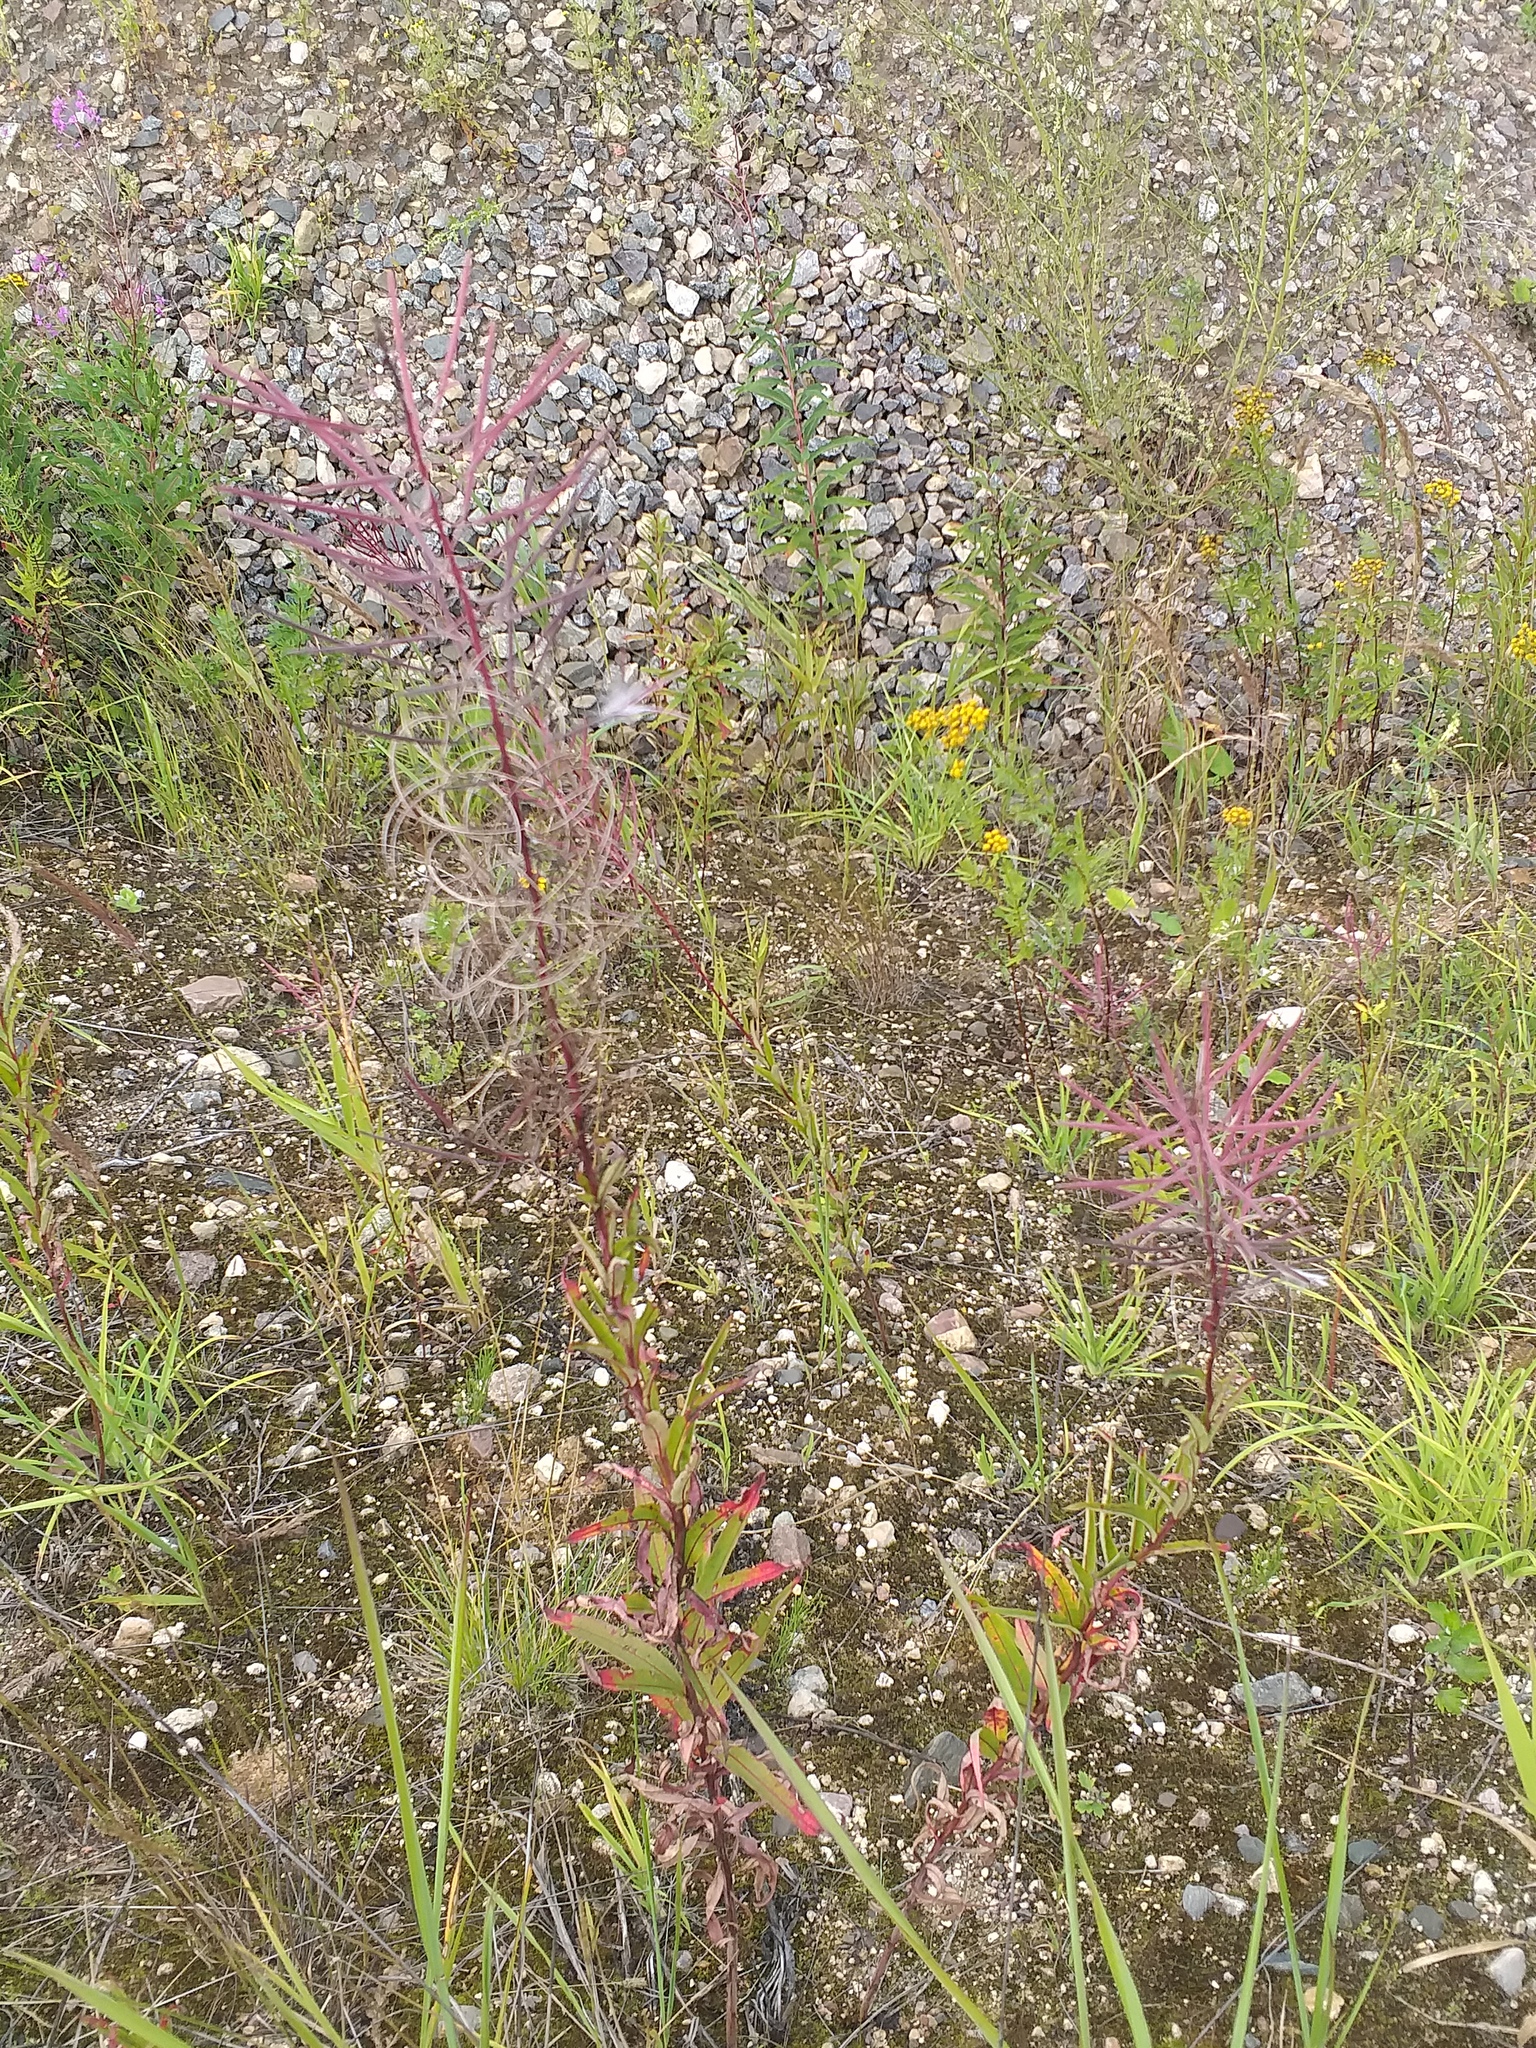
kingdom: Plantae
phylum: Tracheophyta
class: Magnoliopsida
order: Myrtales
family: Onagraceae
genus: Chamaenerion
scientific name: Chamaenerion angustifolium
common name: Fireweed
